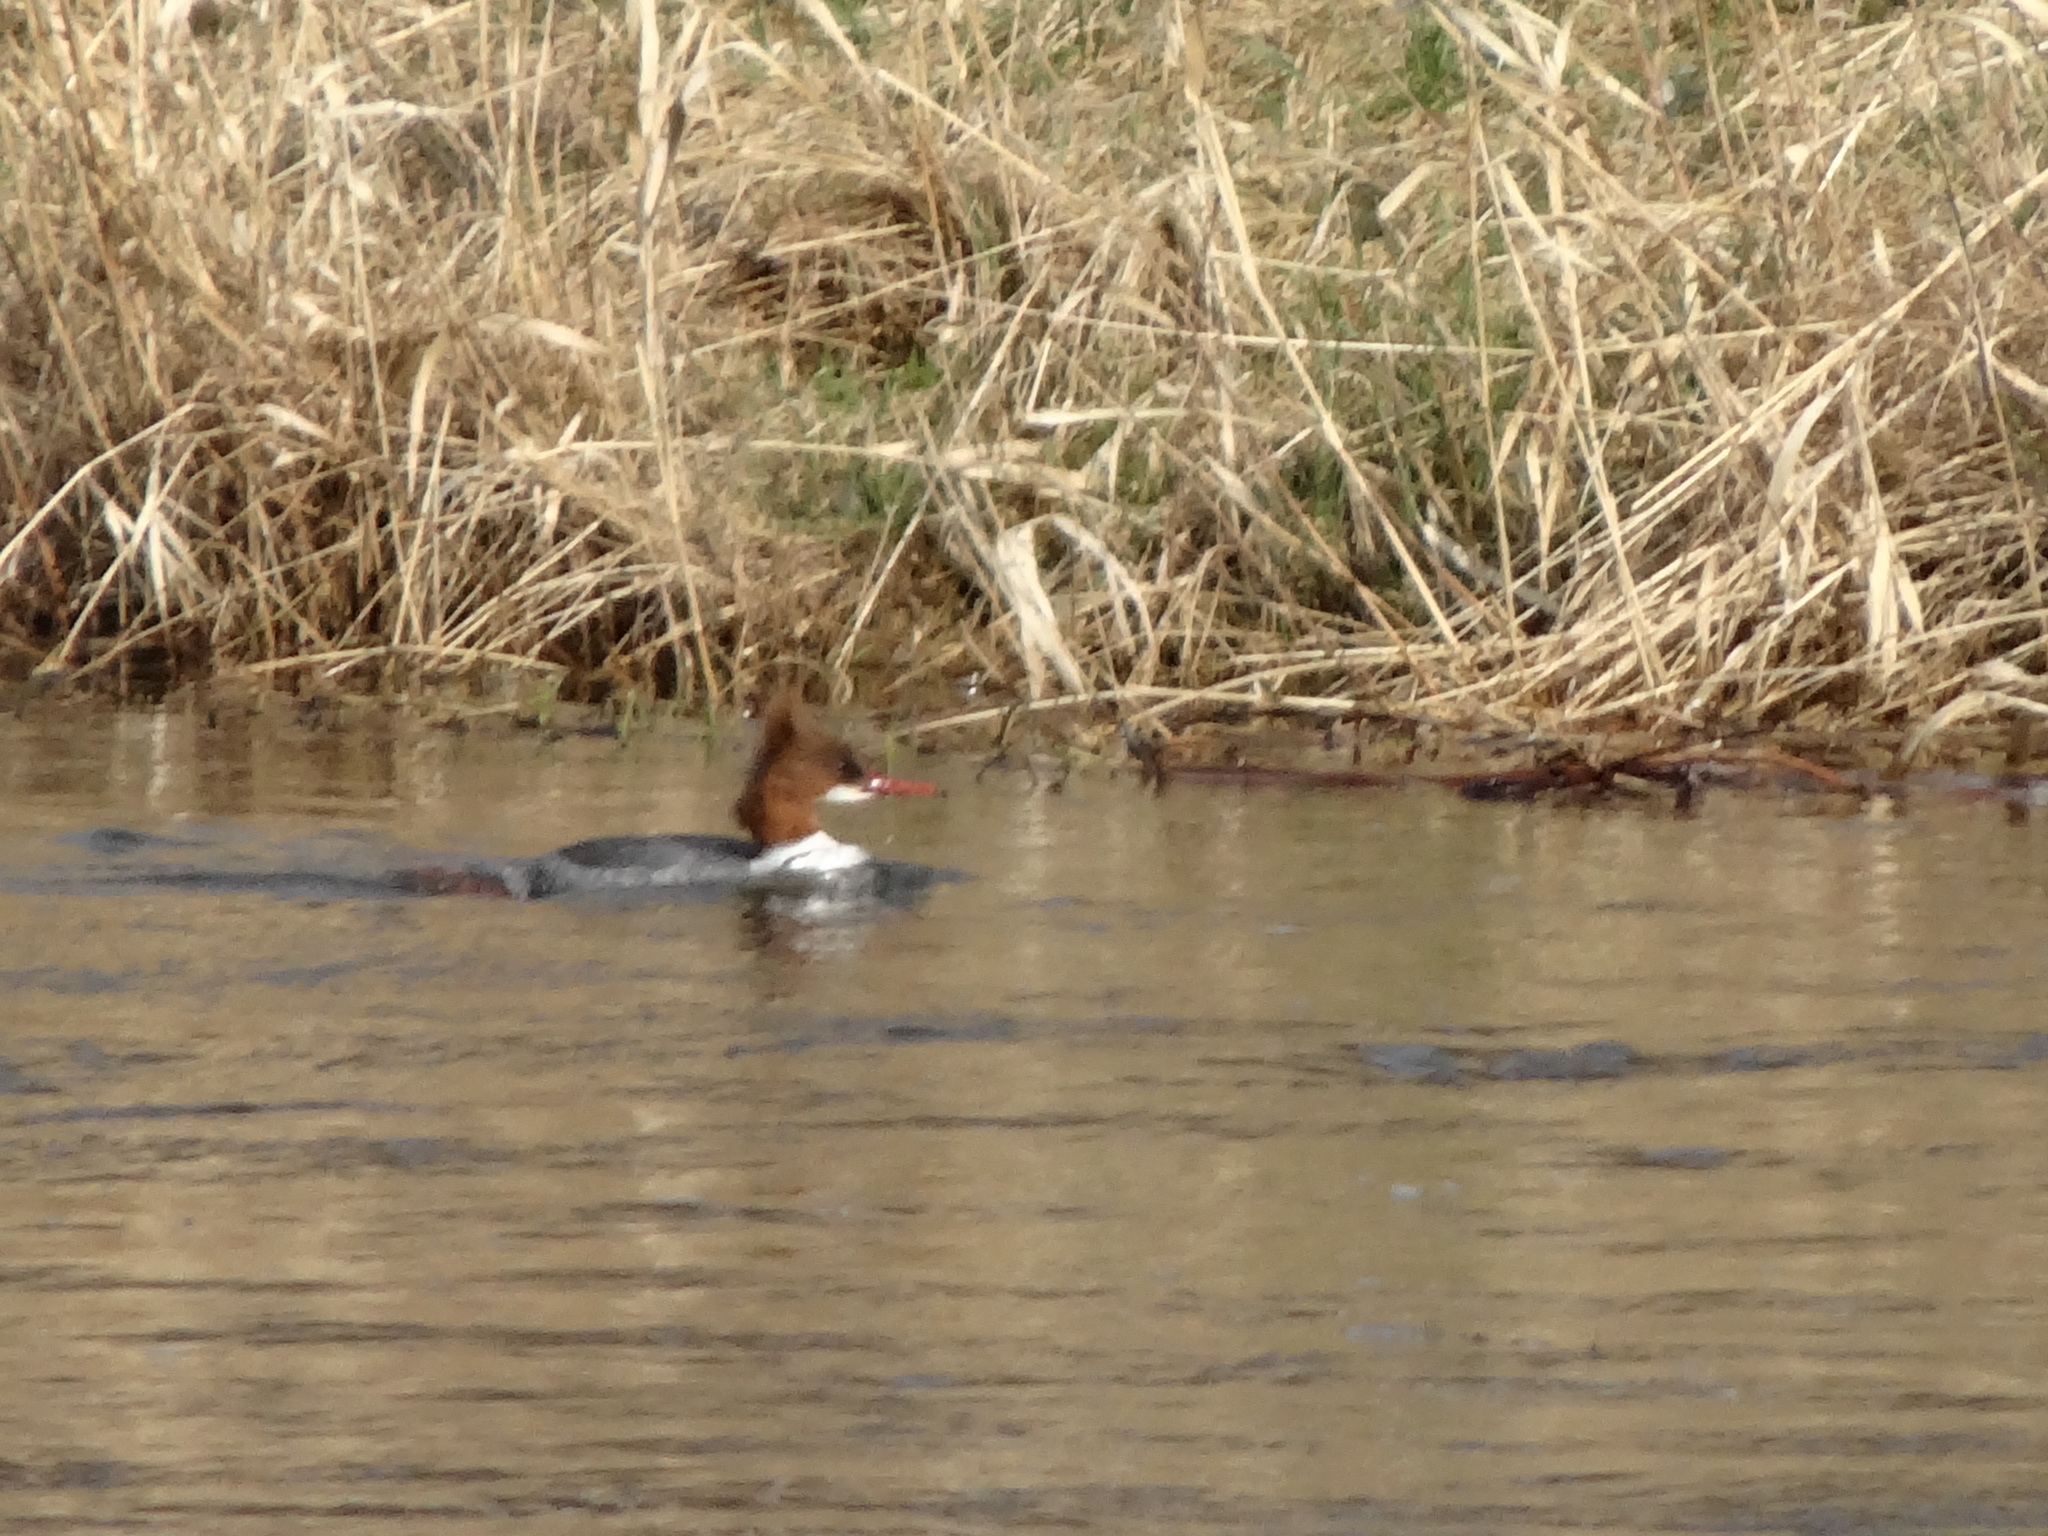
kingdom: Animalia
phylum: Chordata
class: Aves
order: Anseriformes
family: Anatidae
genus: Mergus
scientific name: Mergus merganser
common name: Common merganser
